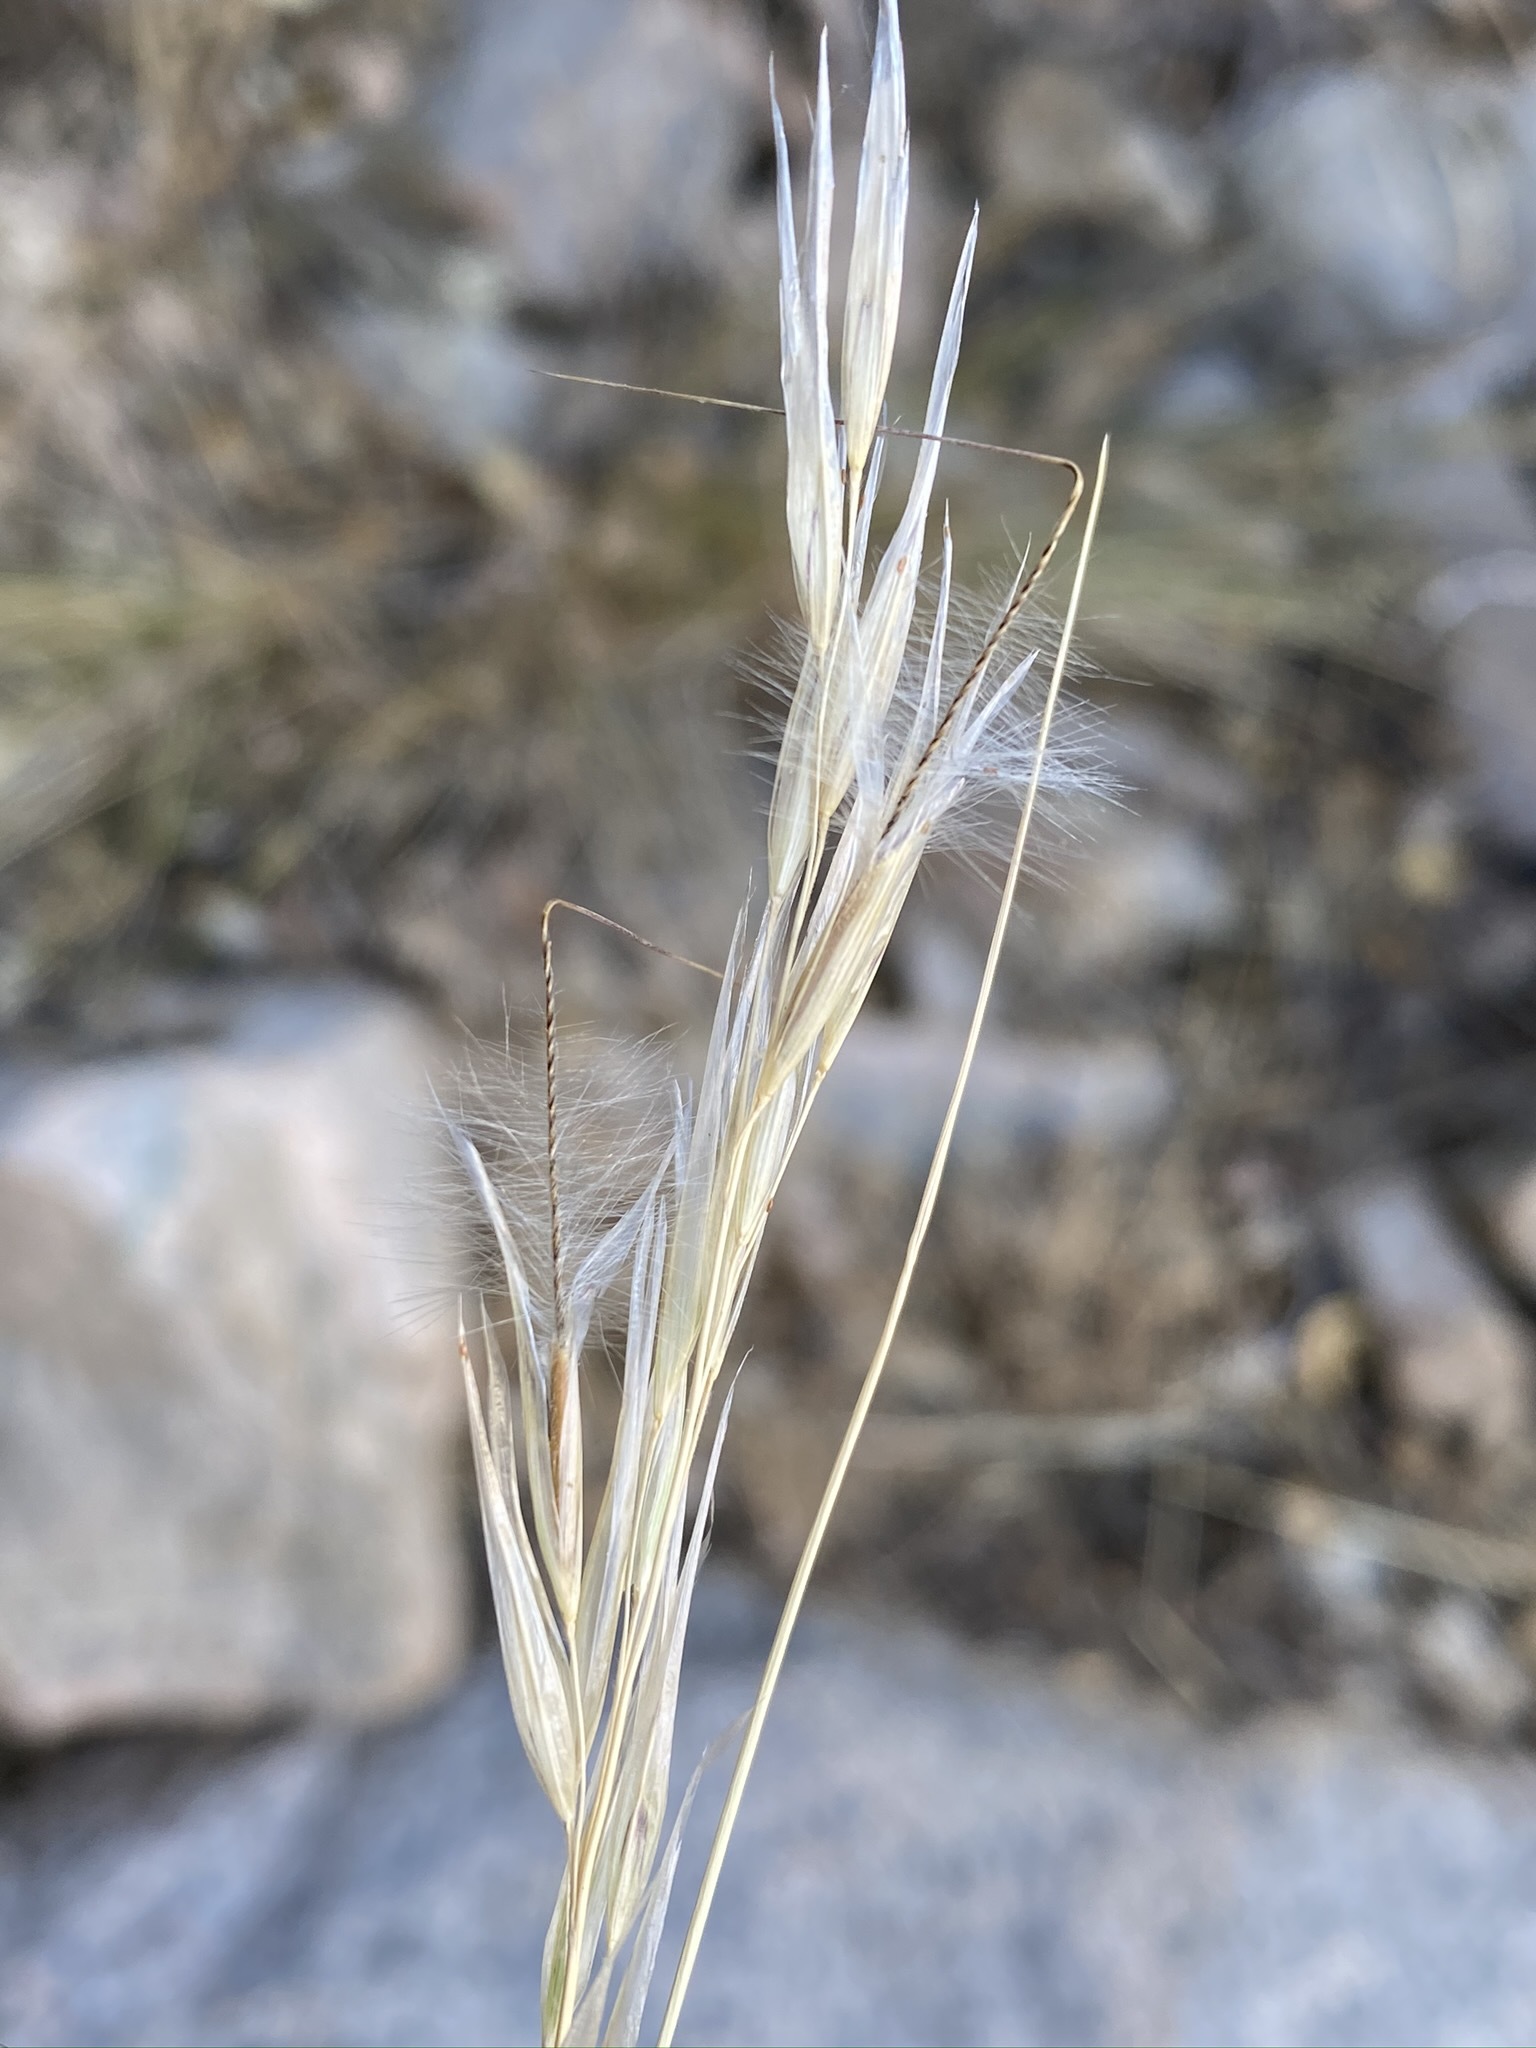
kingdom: Plantae
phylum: Tracheophyta
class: Liliopsida
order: Poales
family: Poaceae
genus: Pappostipa
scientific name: Pappostipa speciosa
